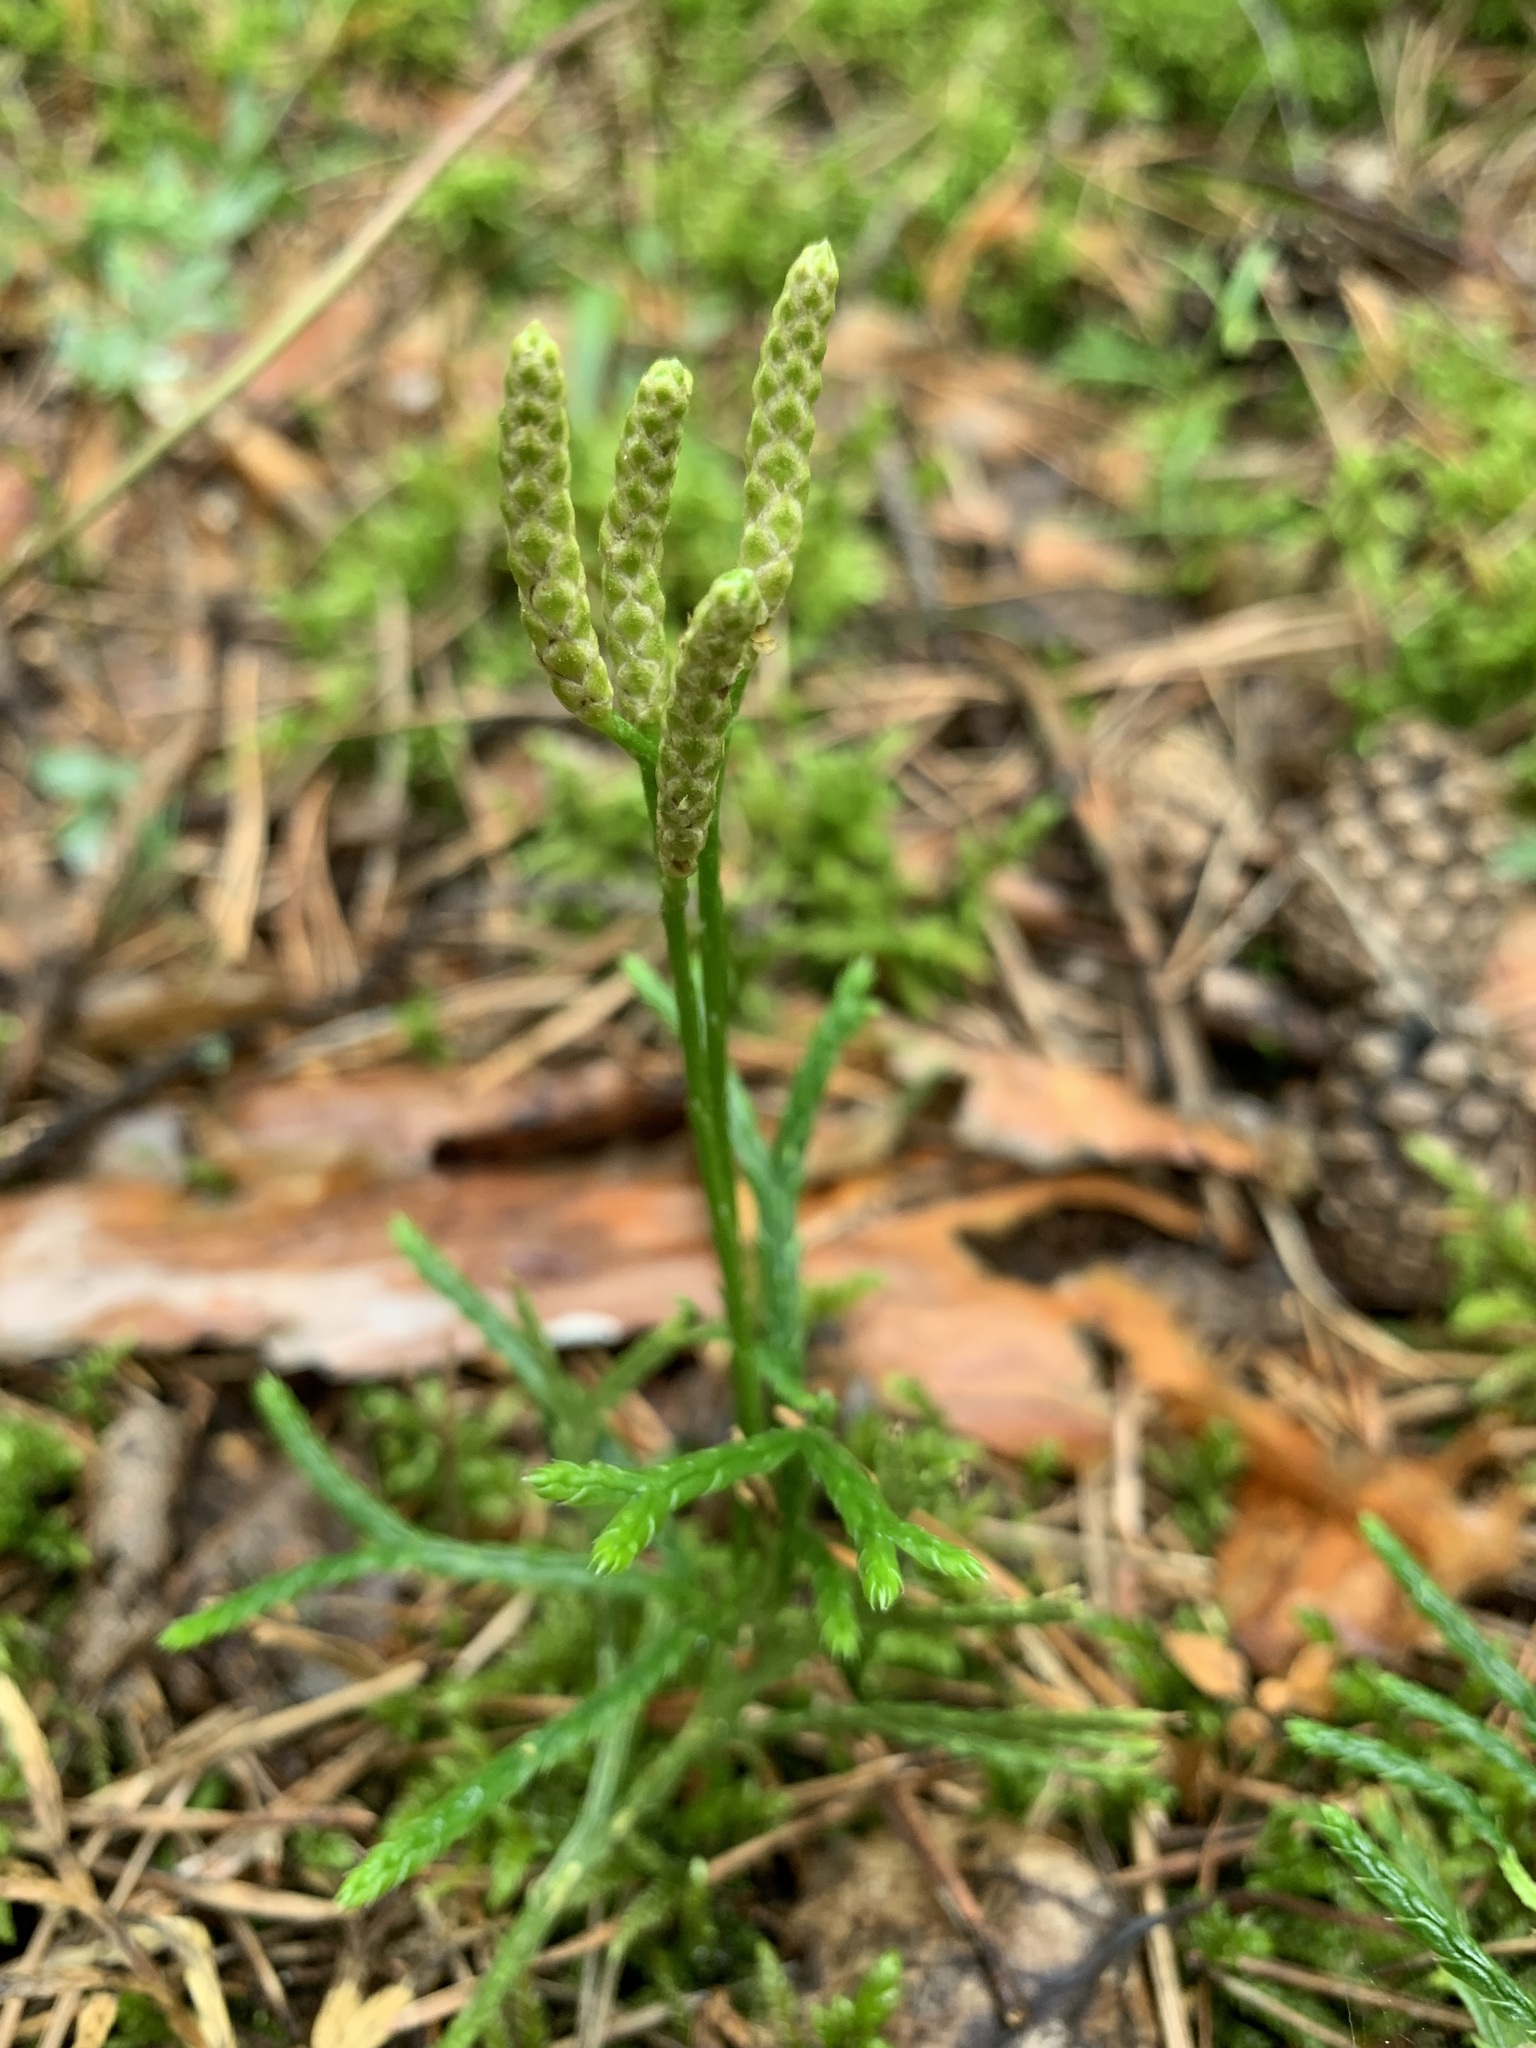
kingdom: Plantae
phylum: Tracheophyta
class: Lycopodiopsida
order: Lycopodiales
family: Lycopodiaceae
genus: Diphasiastrum
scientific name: Diphasiastrum complanatum
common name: Northern running-pine
